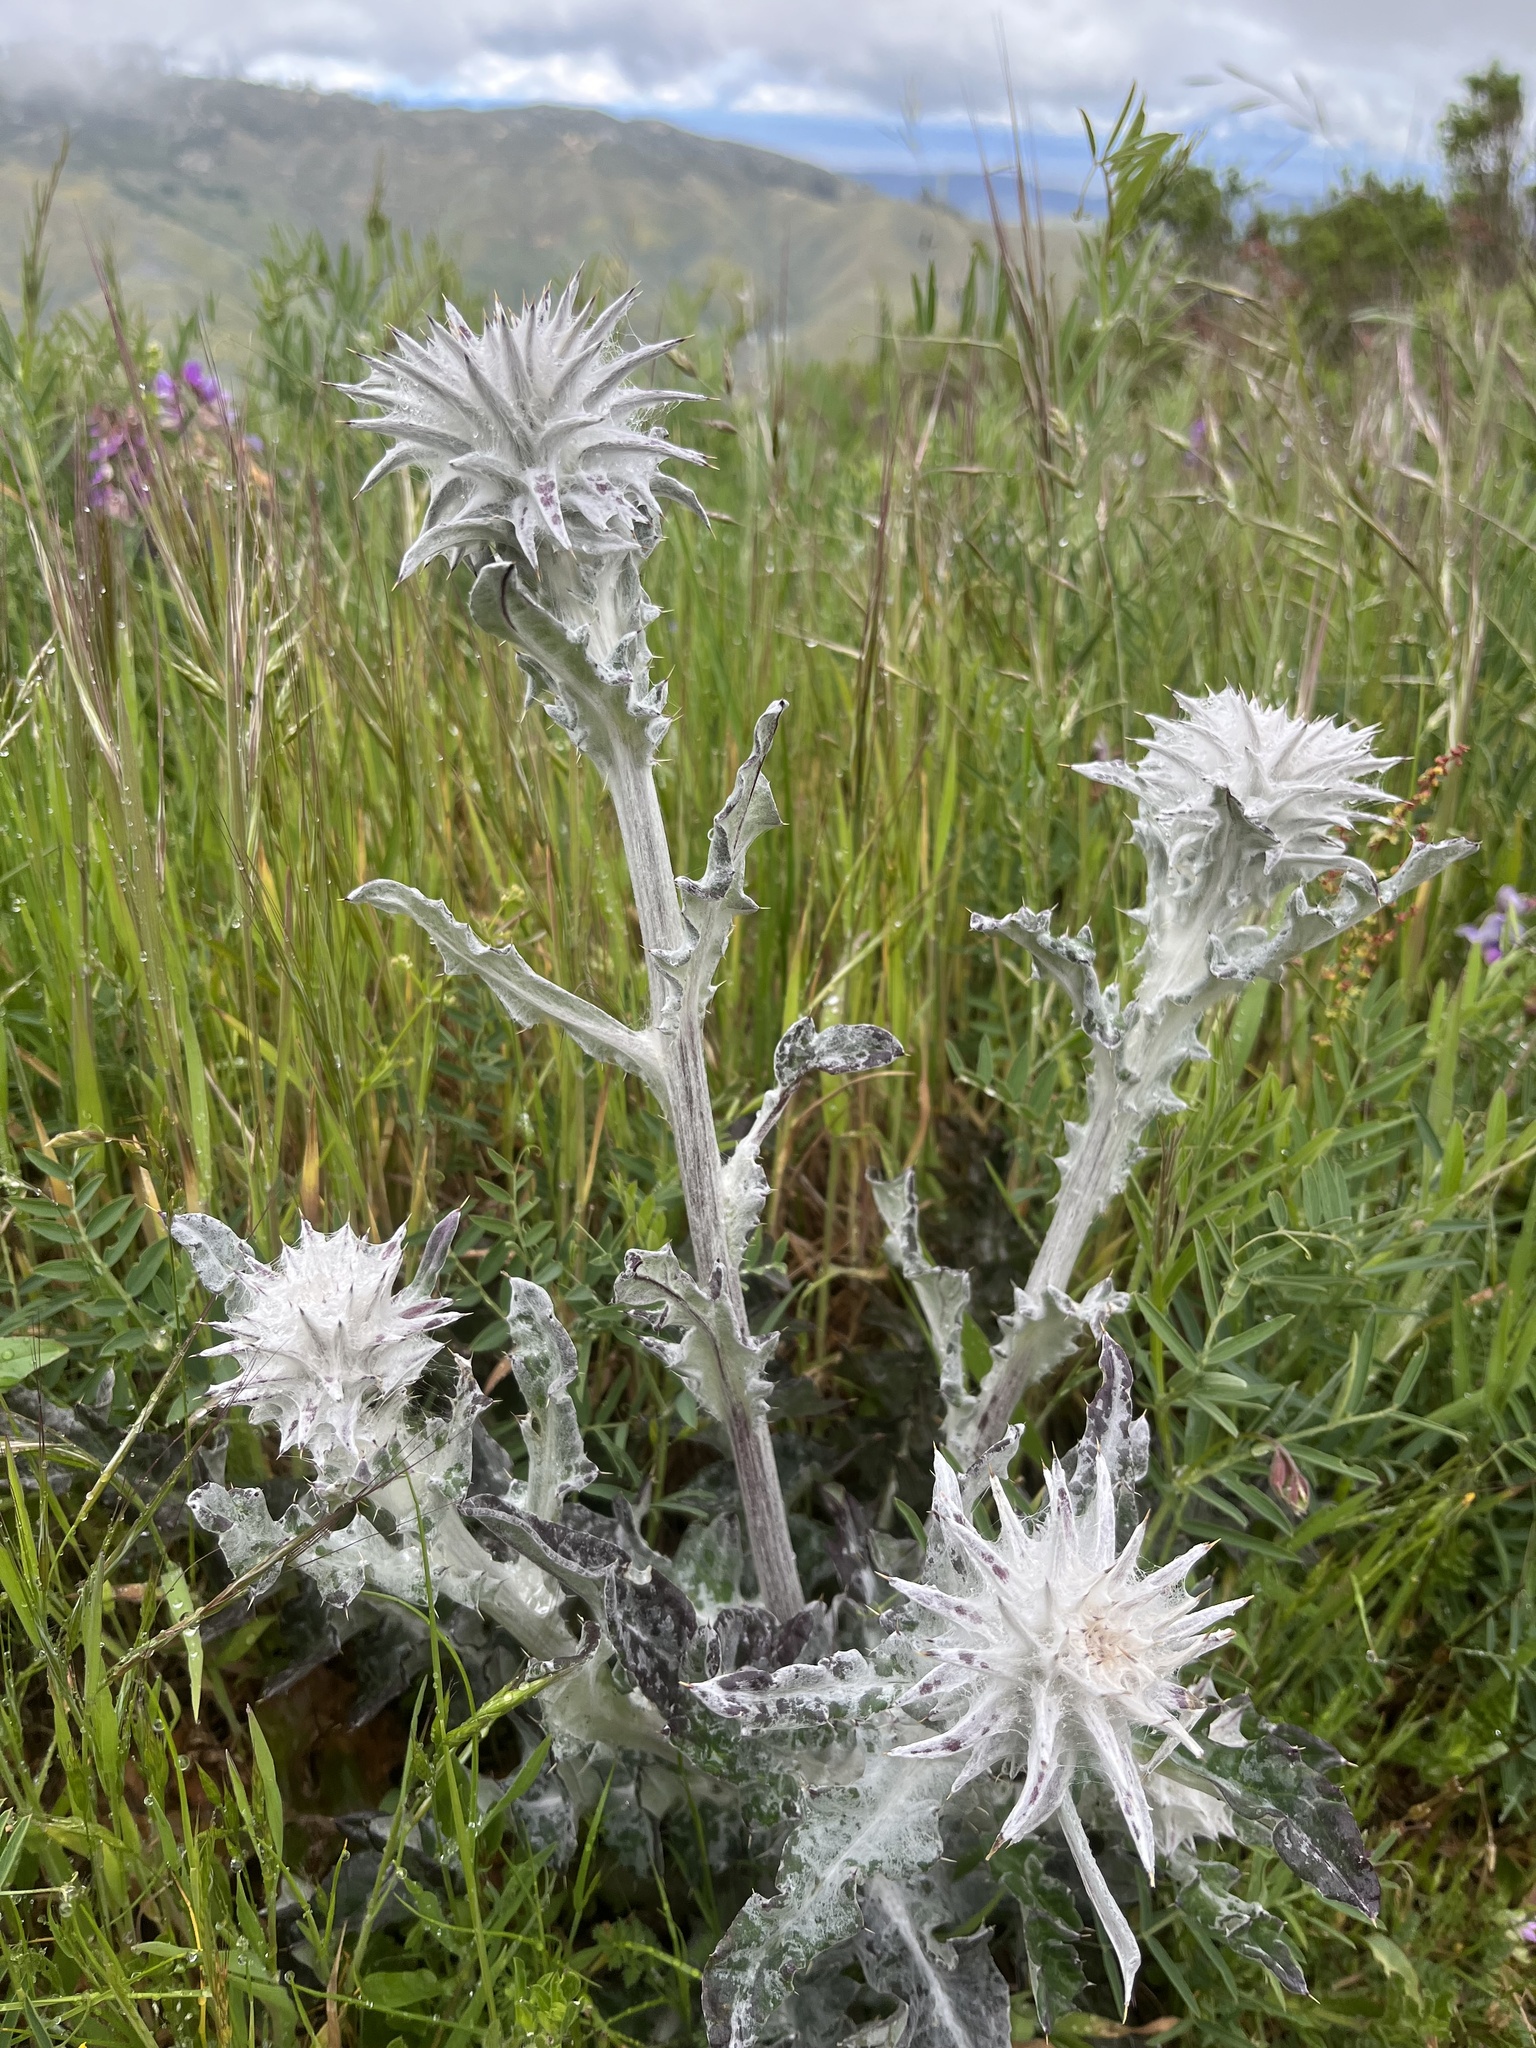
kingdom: Plantae
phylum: Tracheophyta
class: Magnoliopsida
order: Asterales
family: Asteraceae
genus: Cirsium
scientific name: Cirsium occidentale
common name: Western thistle
